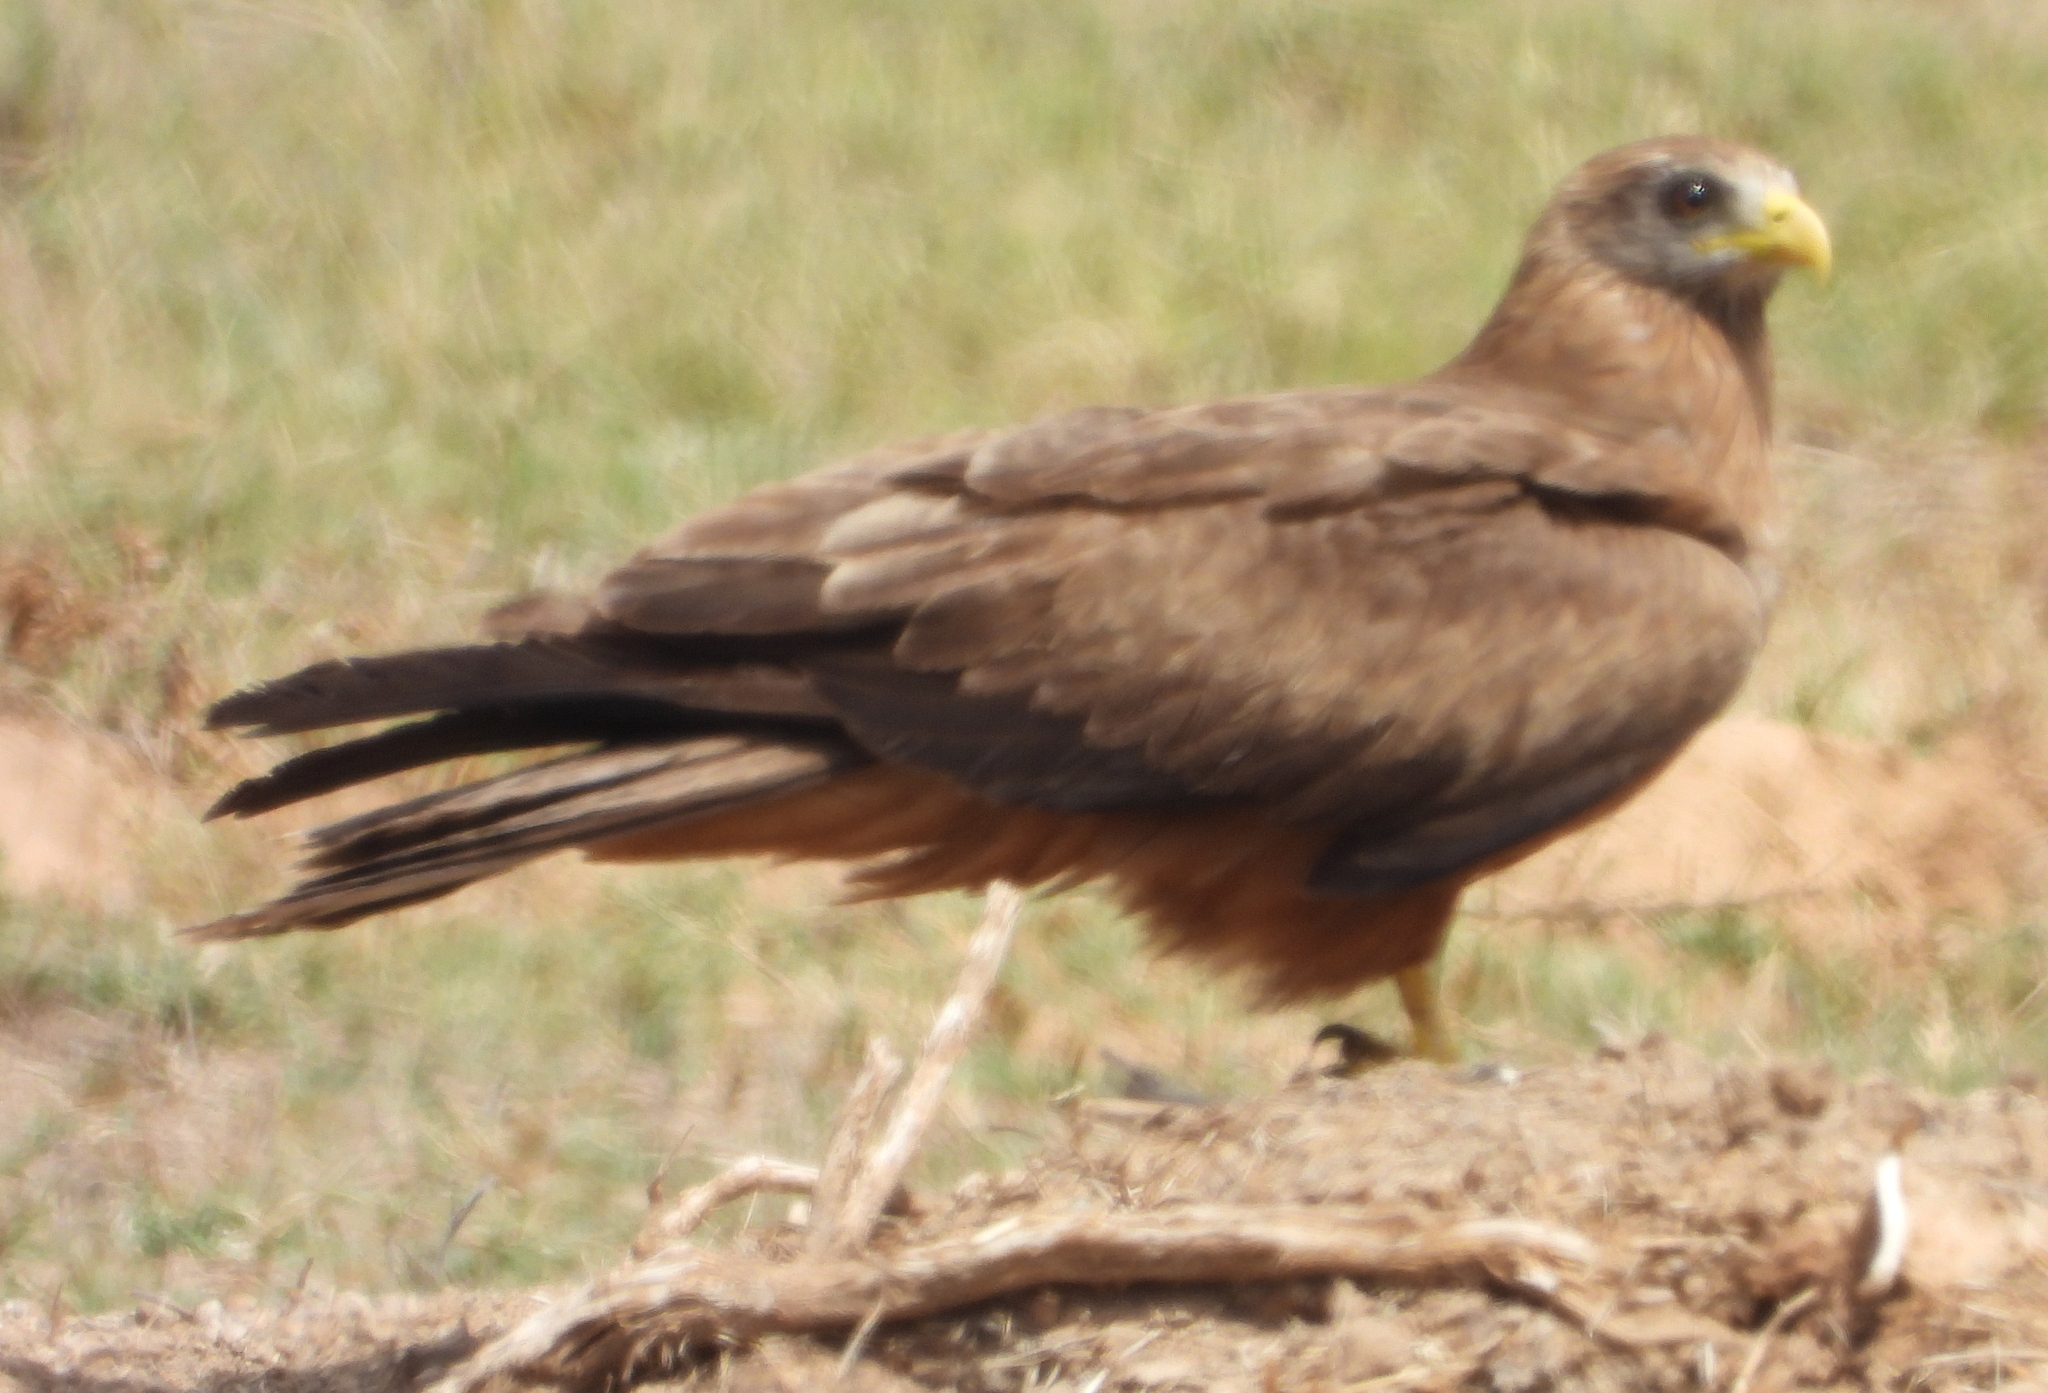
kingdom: Animalia
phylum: Chordata
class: Aves
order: Accipitriformes
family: Accipitridae
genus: Milvus
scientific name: Milvus migrans
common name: Black kite
